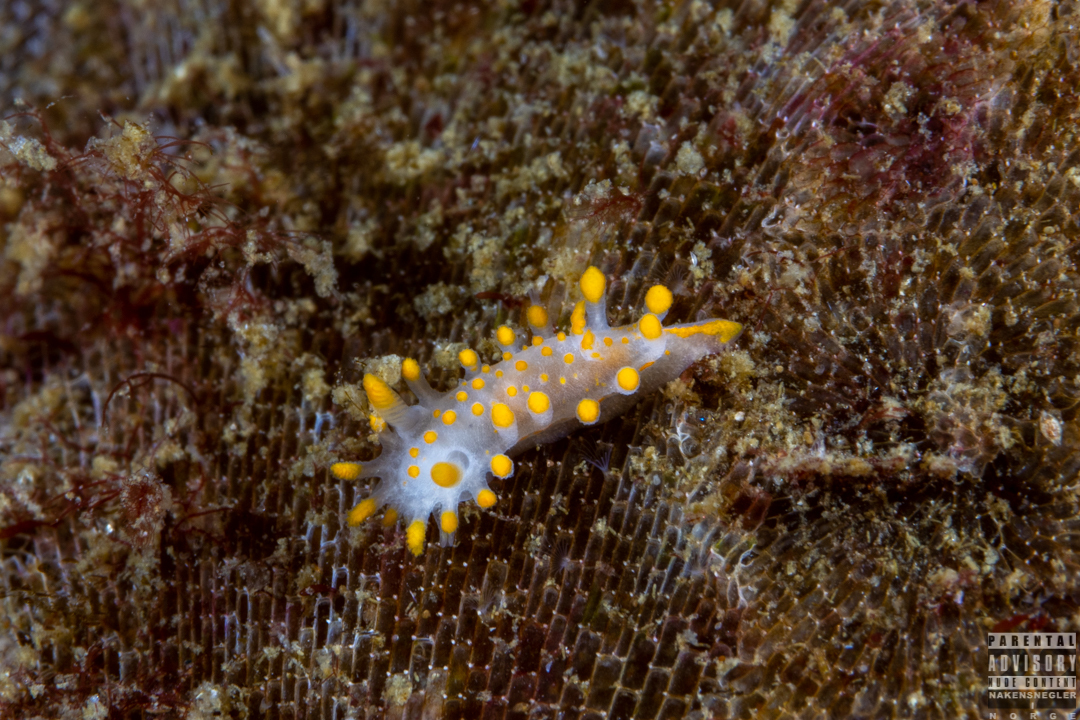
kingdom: Animalia
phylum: Mollusca
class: Gastropoda
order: Nudibranchia
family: Polyceridae
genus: Limacia
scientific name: Limacia clavigera
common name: Orange-clubbed sea slug
